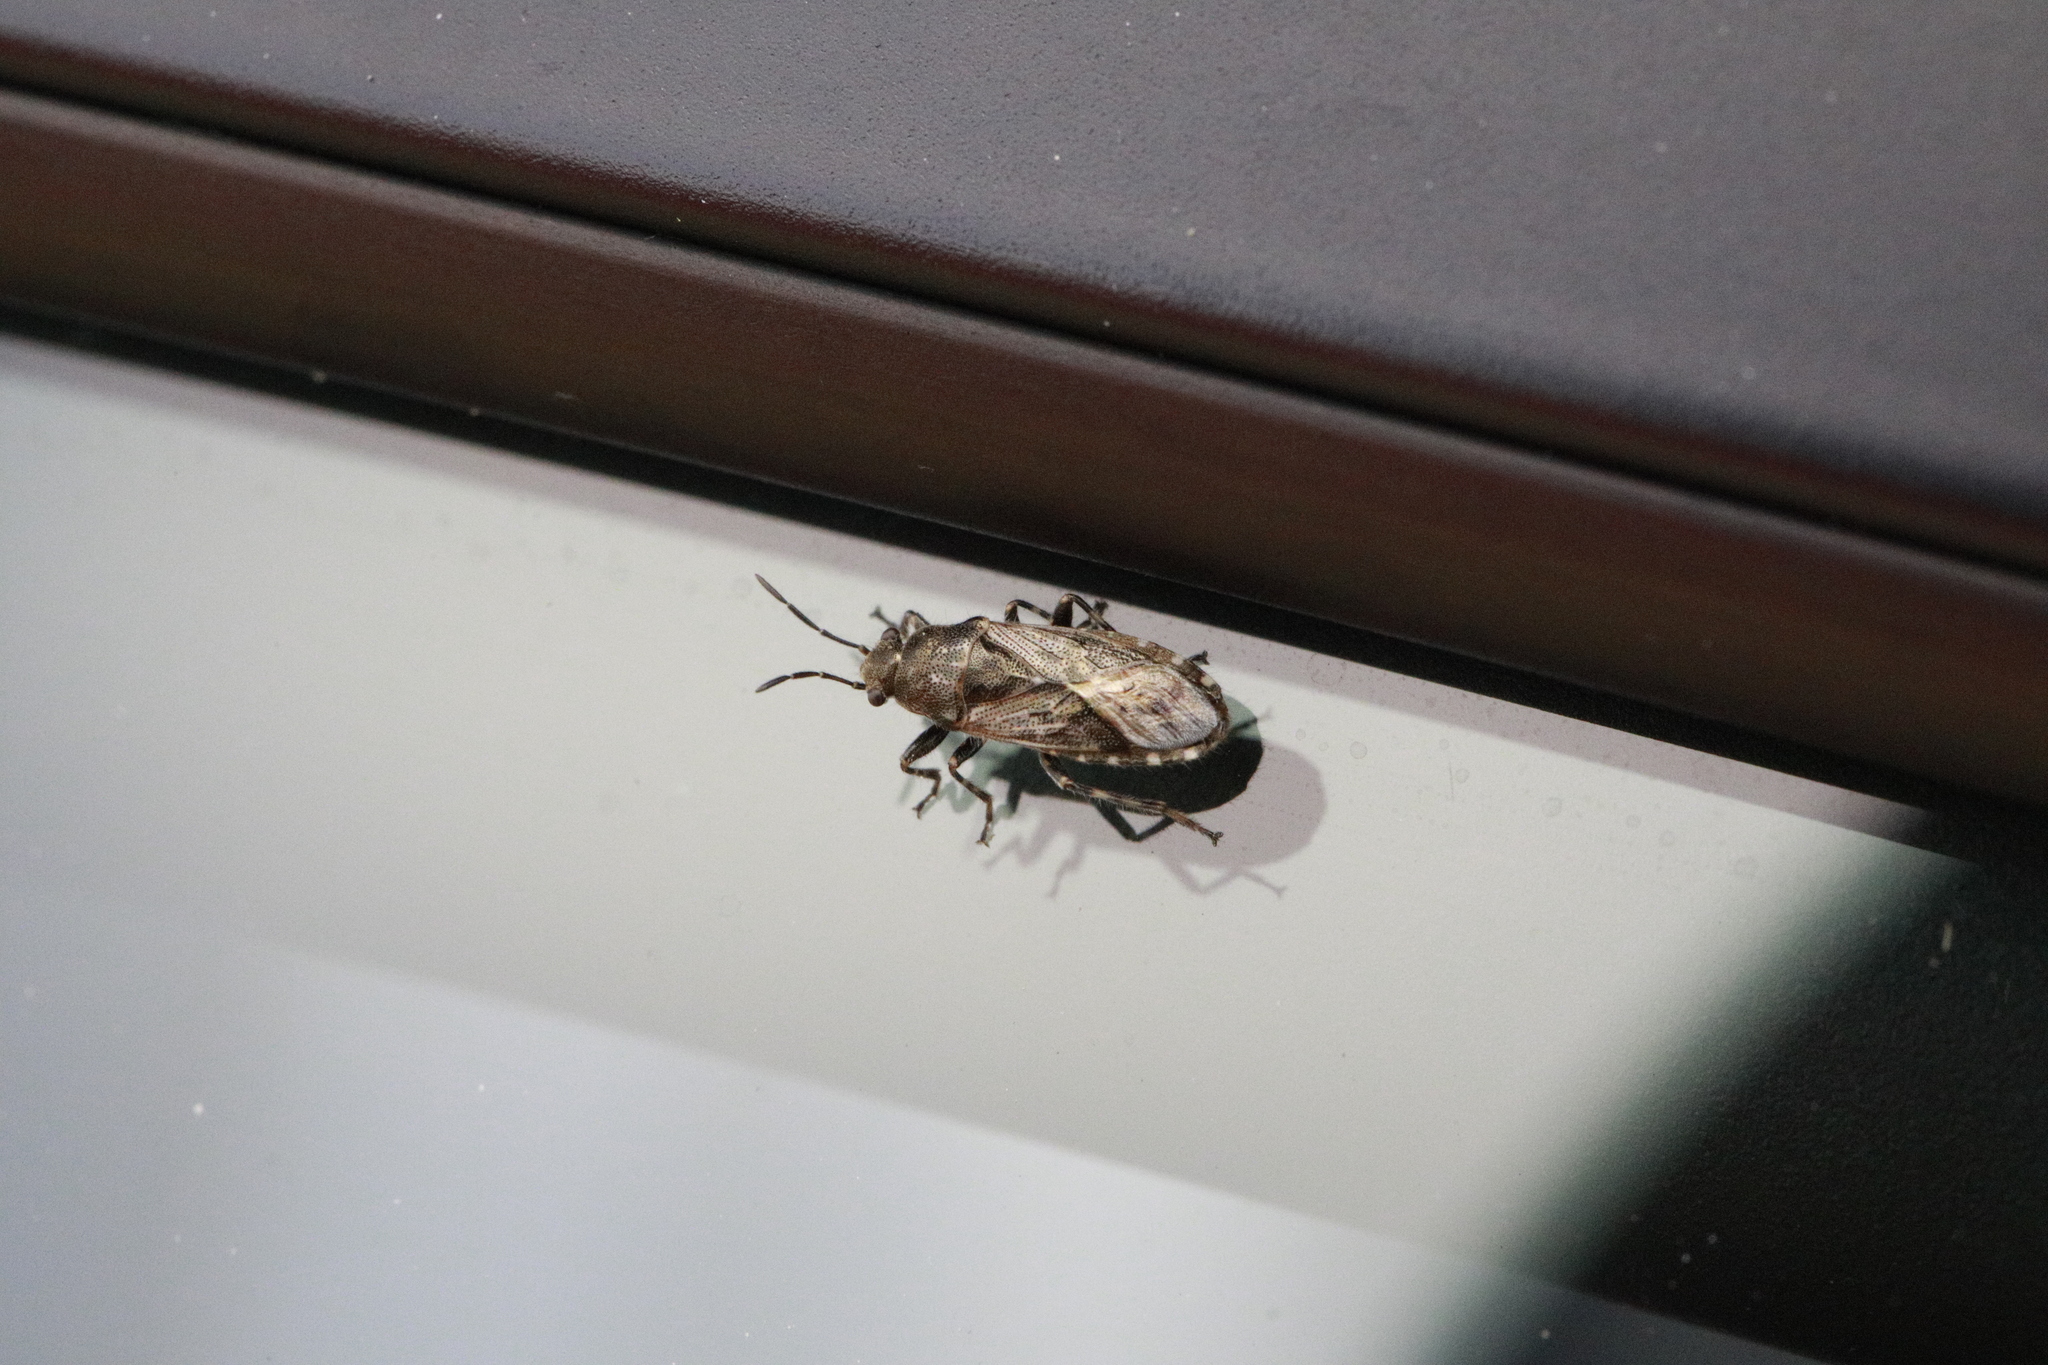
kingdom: Animalia
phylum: Arthropoda
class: Insecta
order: Hemiptera
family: Heterogastridae
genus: Heterogaster
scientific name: Heterogaster urticae
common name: Seed bug
